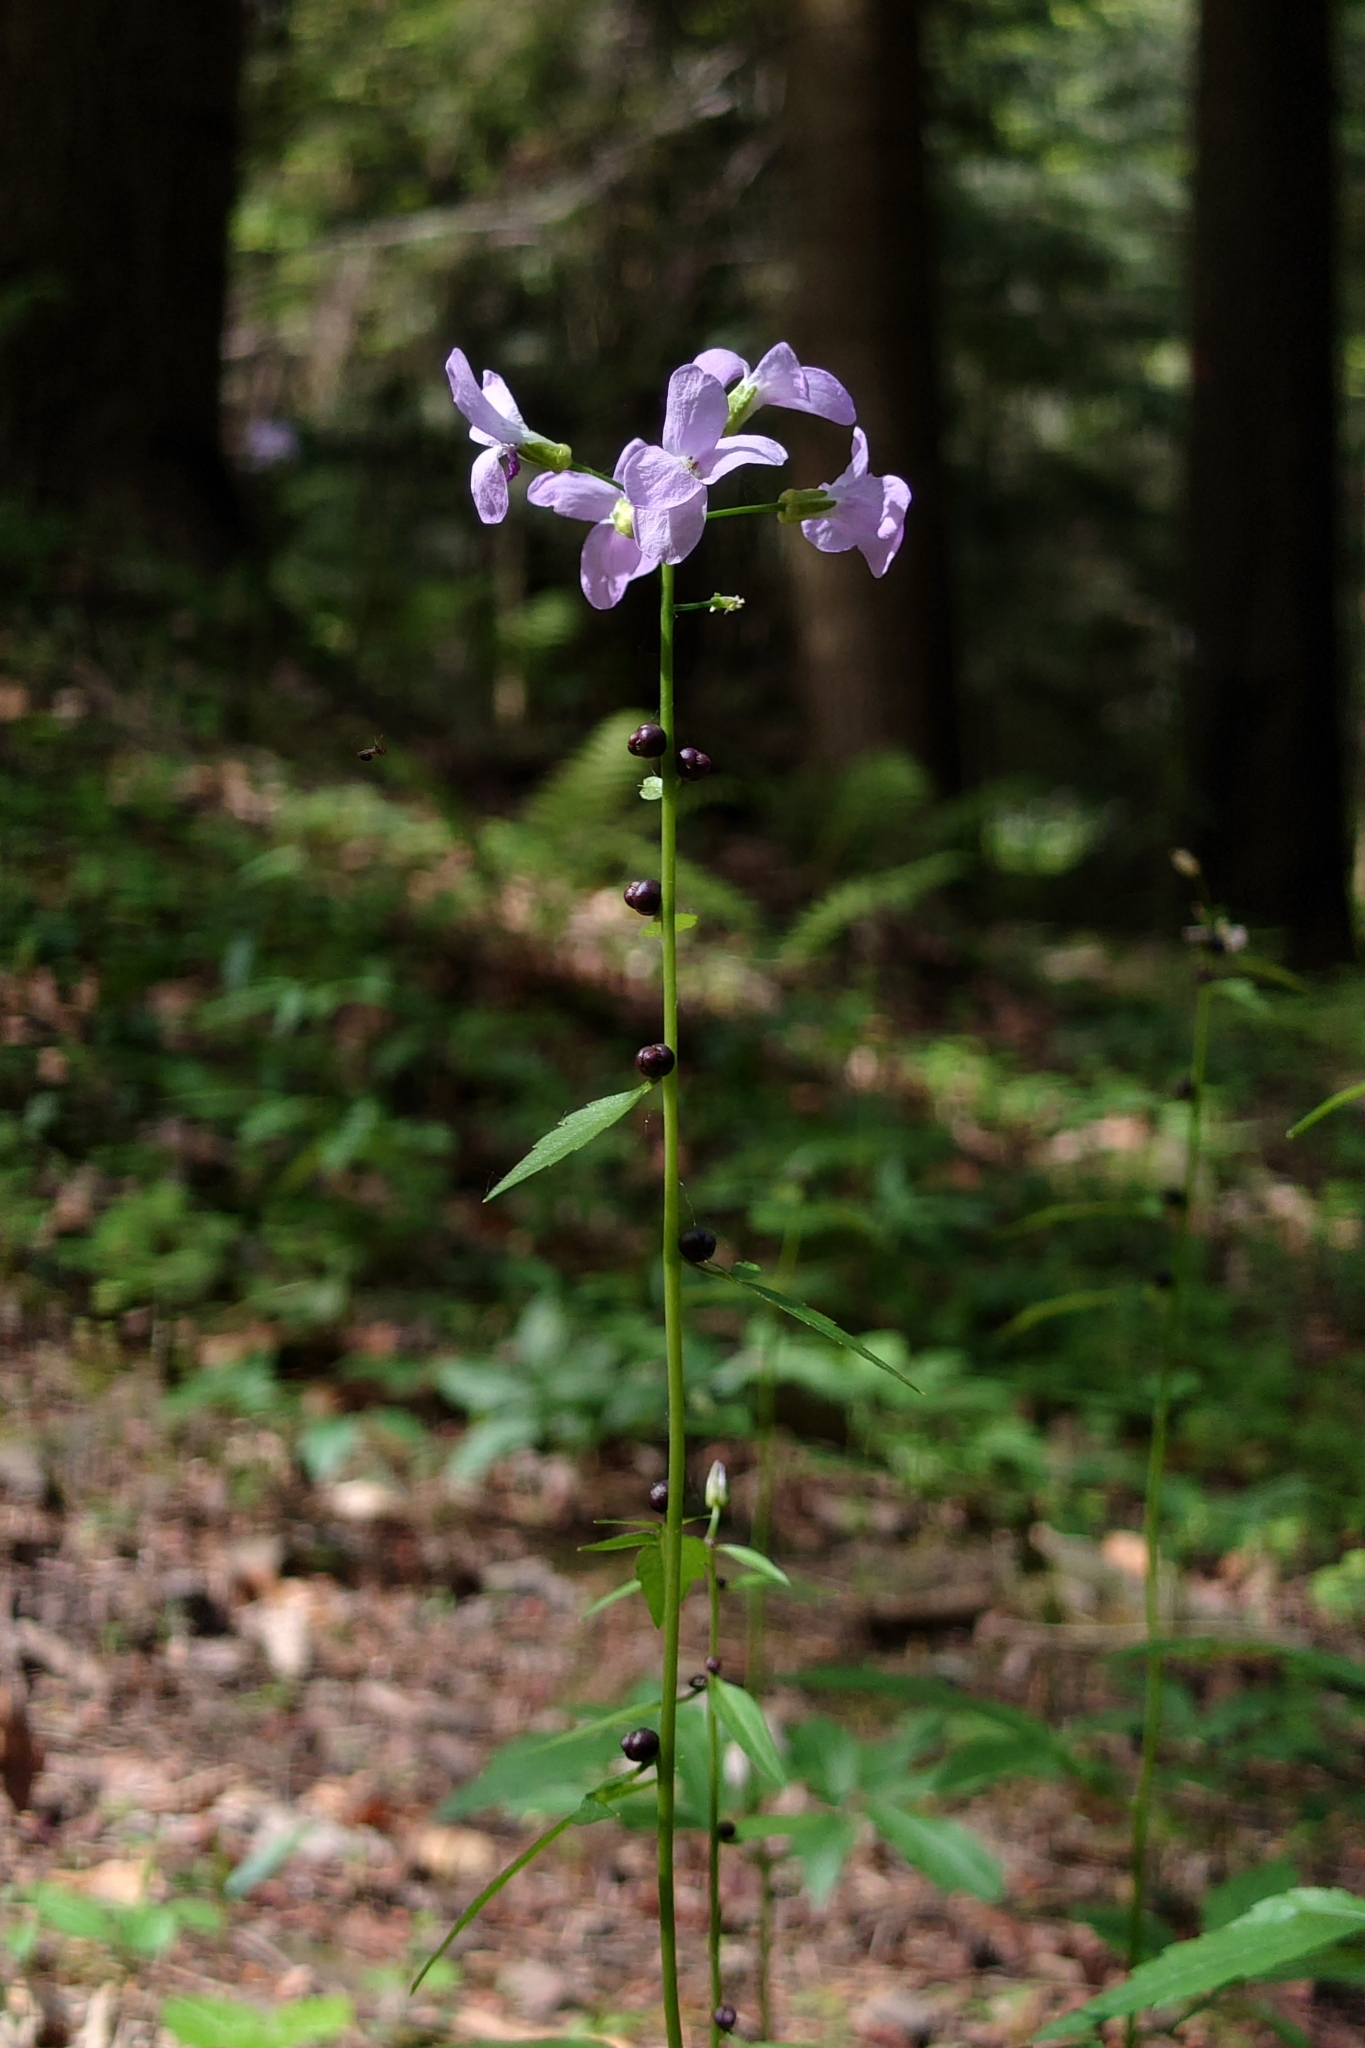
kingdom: Plantae
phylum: Tracheophyta
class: Magnoliopsida
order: Brassicales
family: Brassicaceae
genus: Cardamine
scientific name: Cardamine bulbifera
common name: Coralroot bittercress
